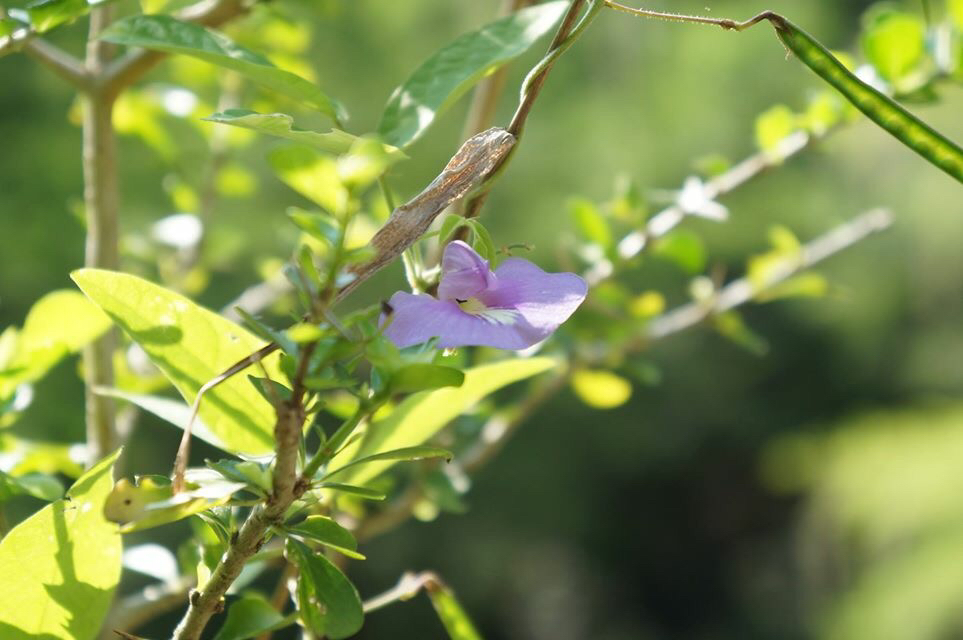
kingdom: Plantae
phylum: Tracheophyta
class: Magnoliopsida
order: Fabales
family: Fabaceae
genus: Centrosema
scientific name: Centrosema virginianum
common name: Butterfly-pea
